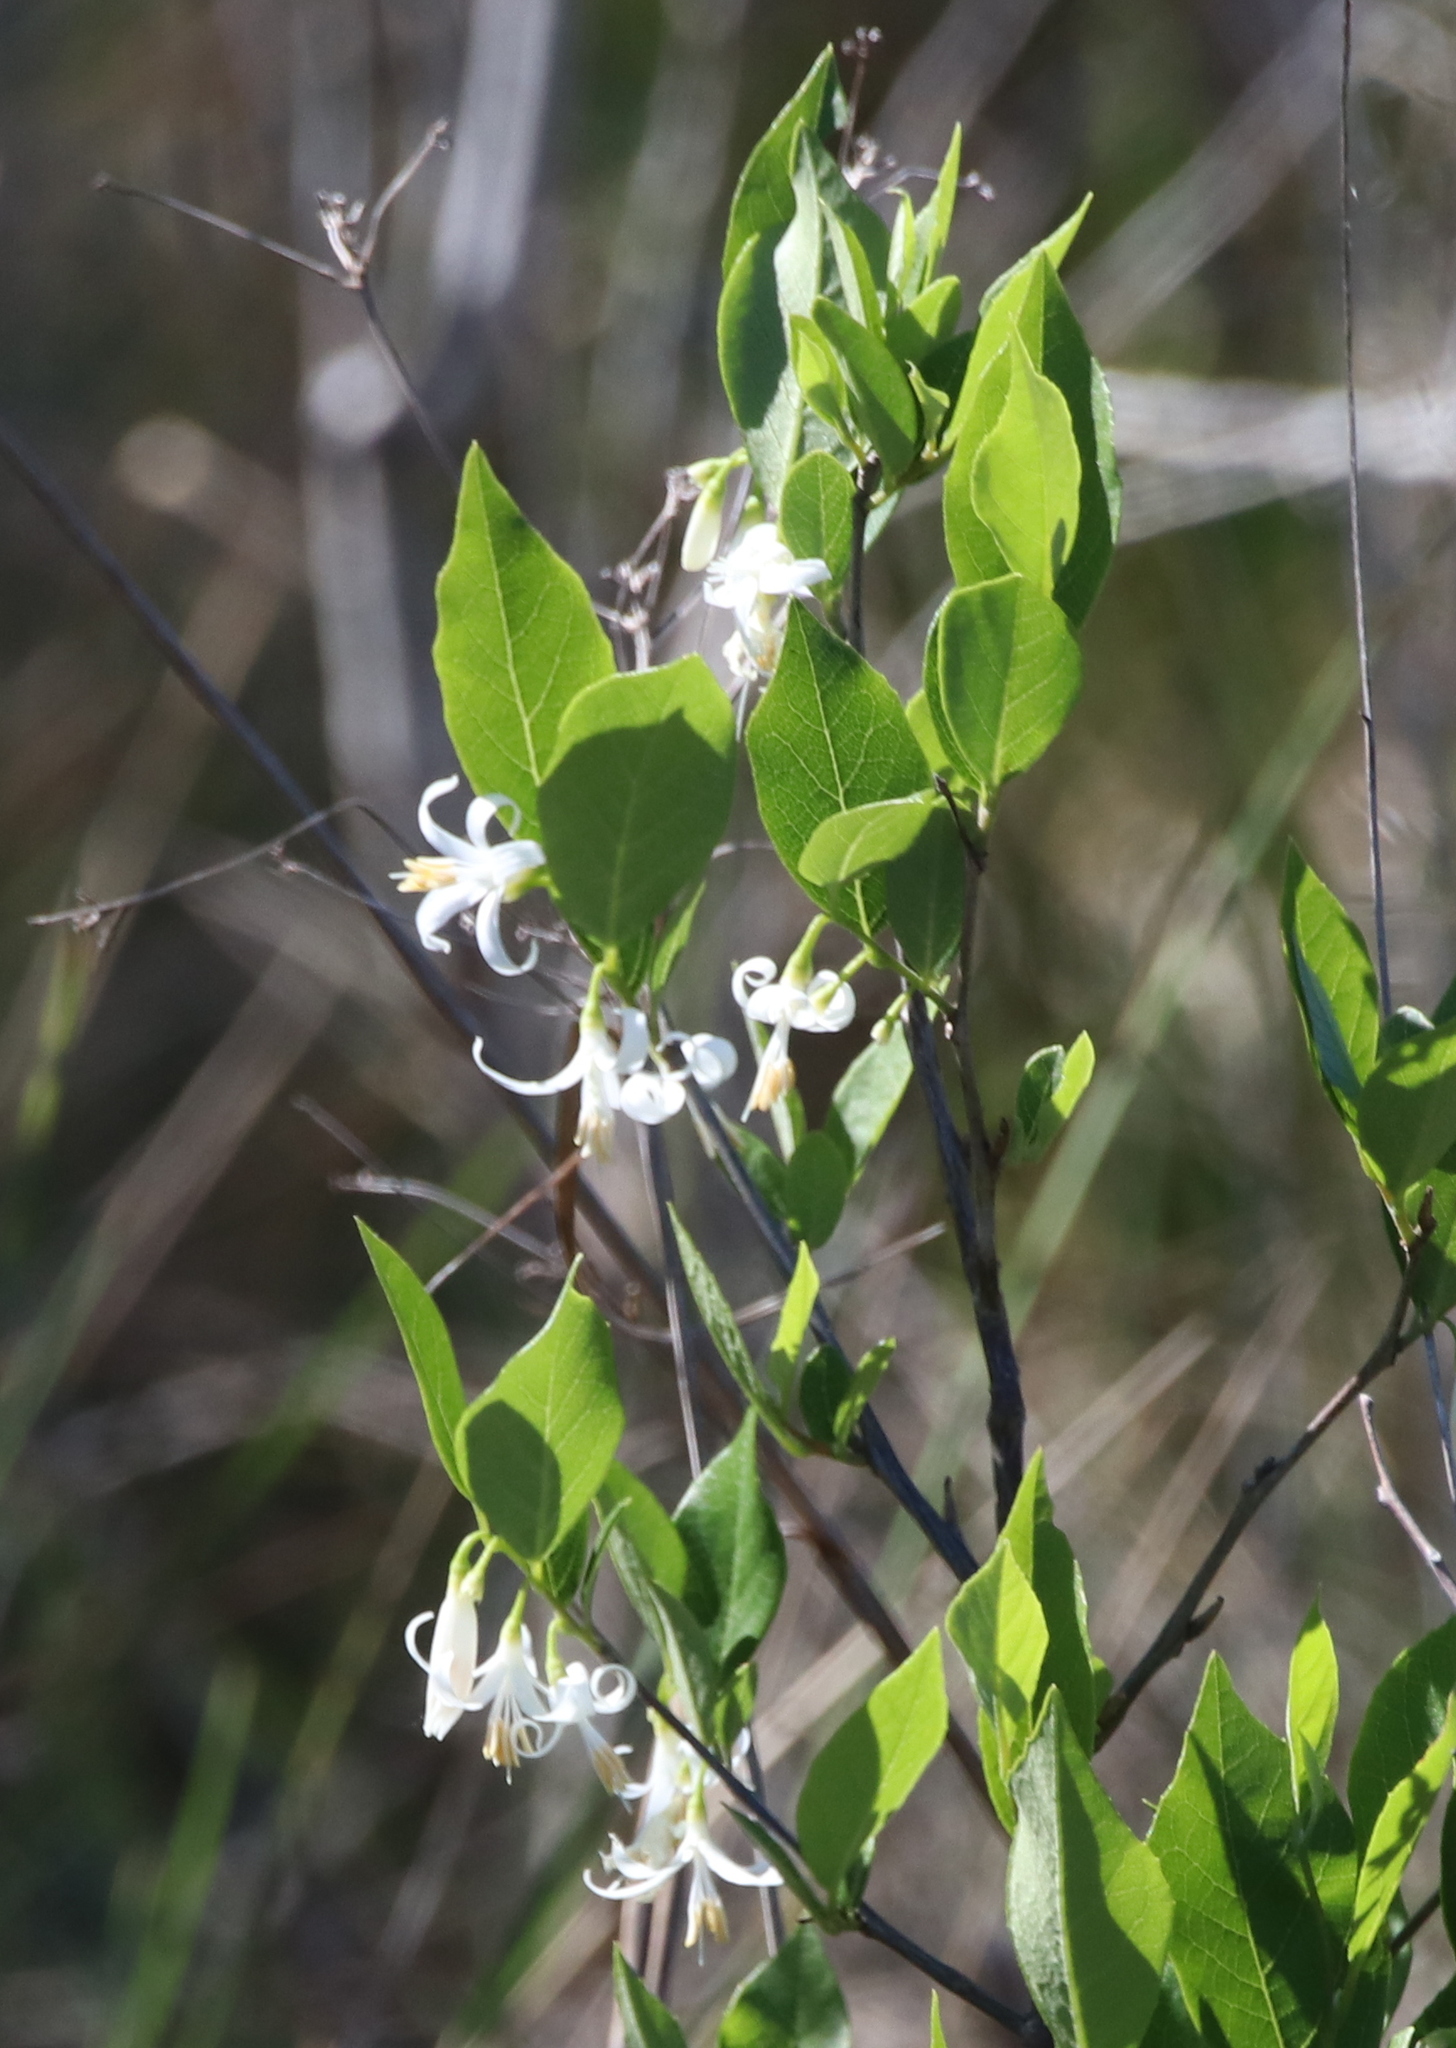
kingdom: Plantae
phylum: Tracheophyta
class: Magnoliopsida
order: Ericales
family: Styracaceae
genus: Styrax
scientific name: Styrax americanus
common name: American snowbell
